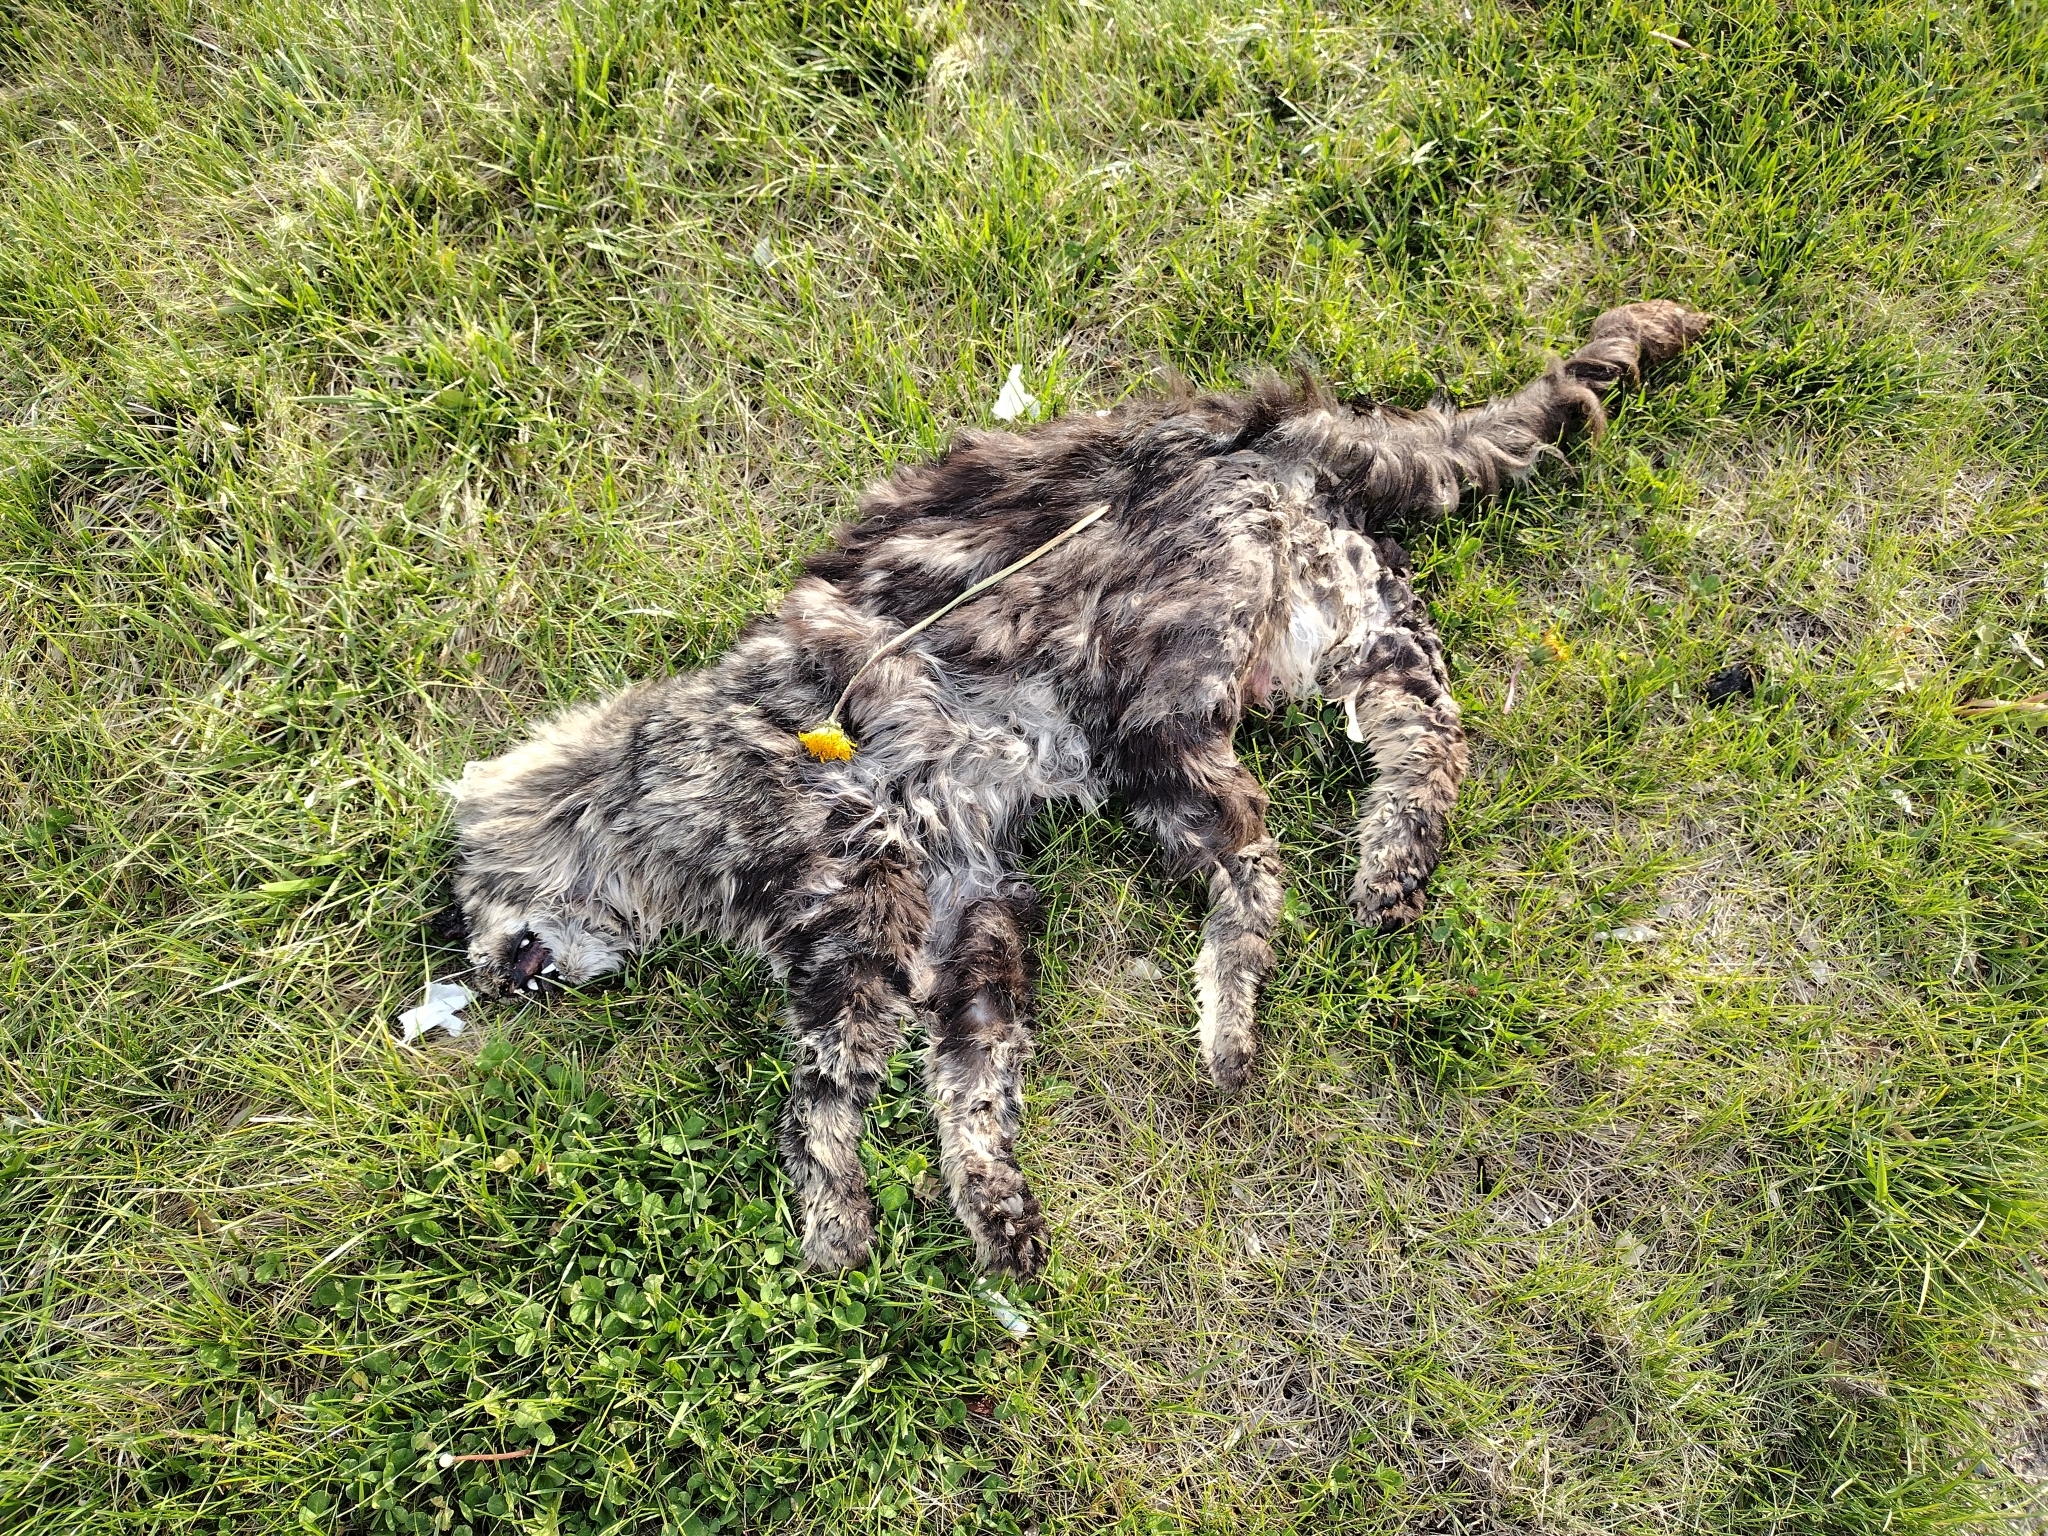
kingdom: Animalia
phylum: Chordata
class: Mammalia
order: Carnivora
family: Felidae
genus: Felis
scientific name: Felis catus
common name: Domestic cat
